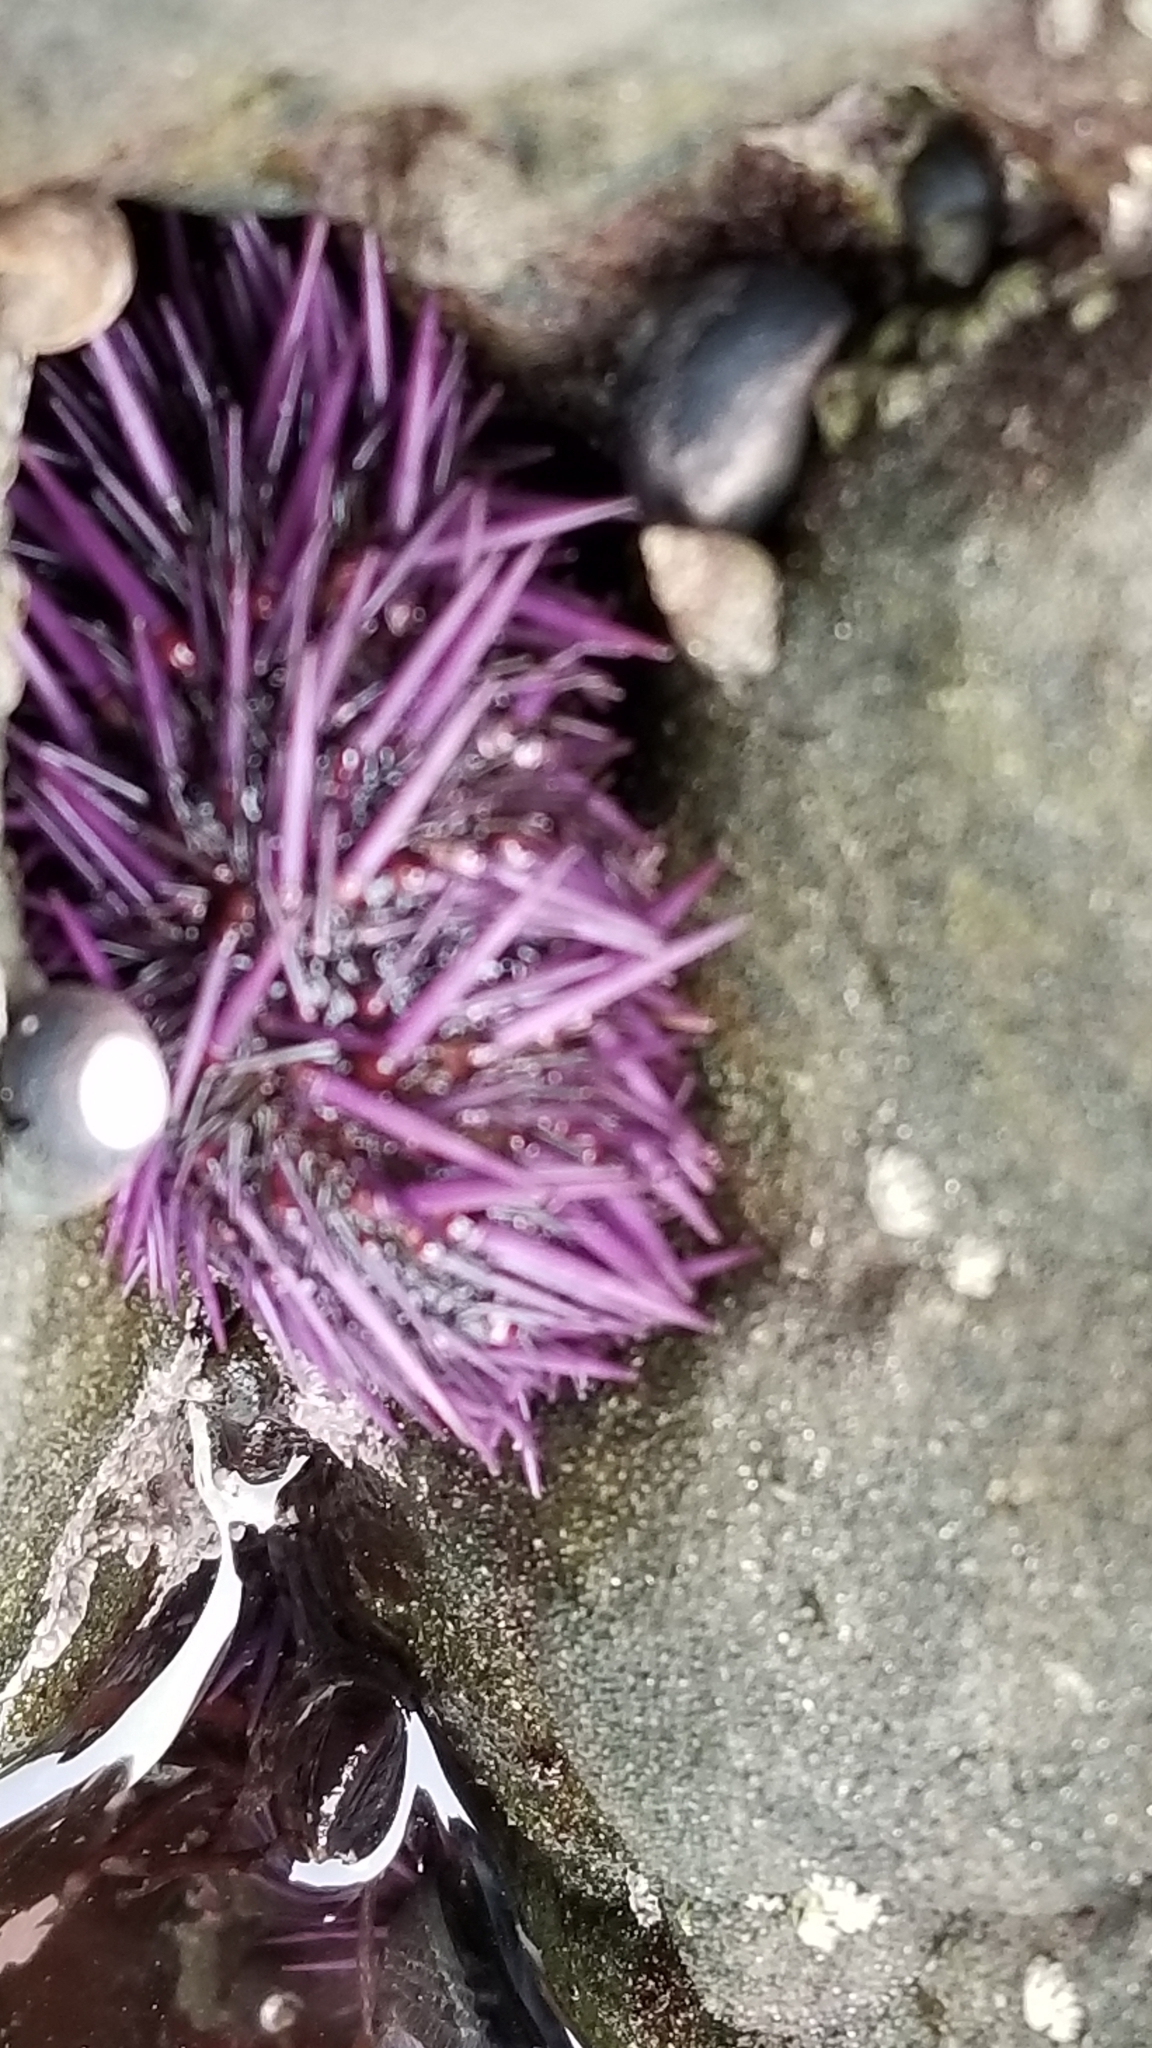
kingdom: Animalia
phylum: Echinodermata
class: Echinoidea
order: Camarodonta
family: Strongylocentrotidae
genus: Strongylocentrotus
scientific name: Strongylocentrotus purpuratus
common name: Purple sea urchin
